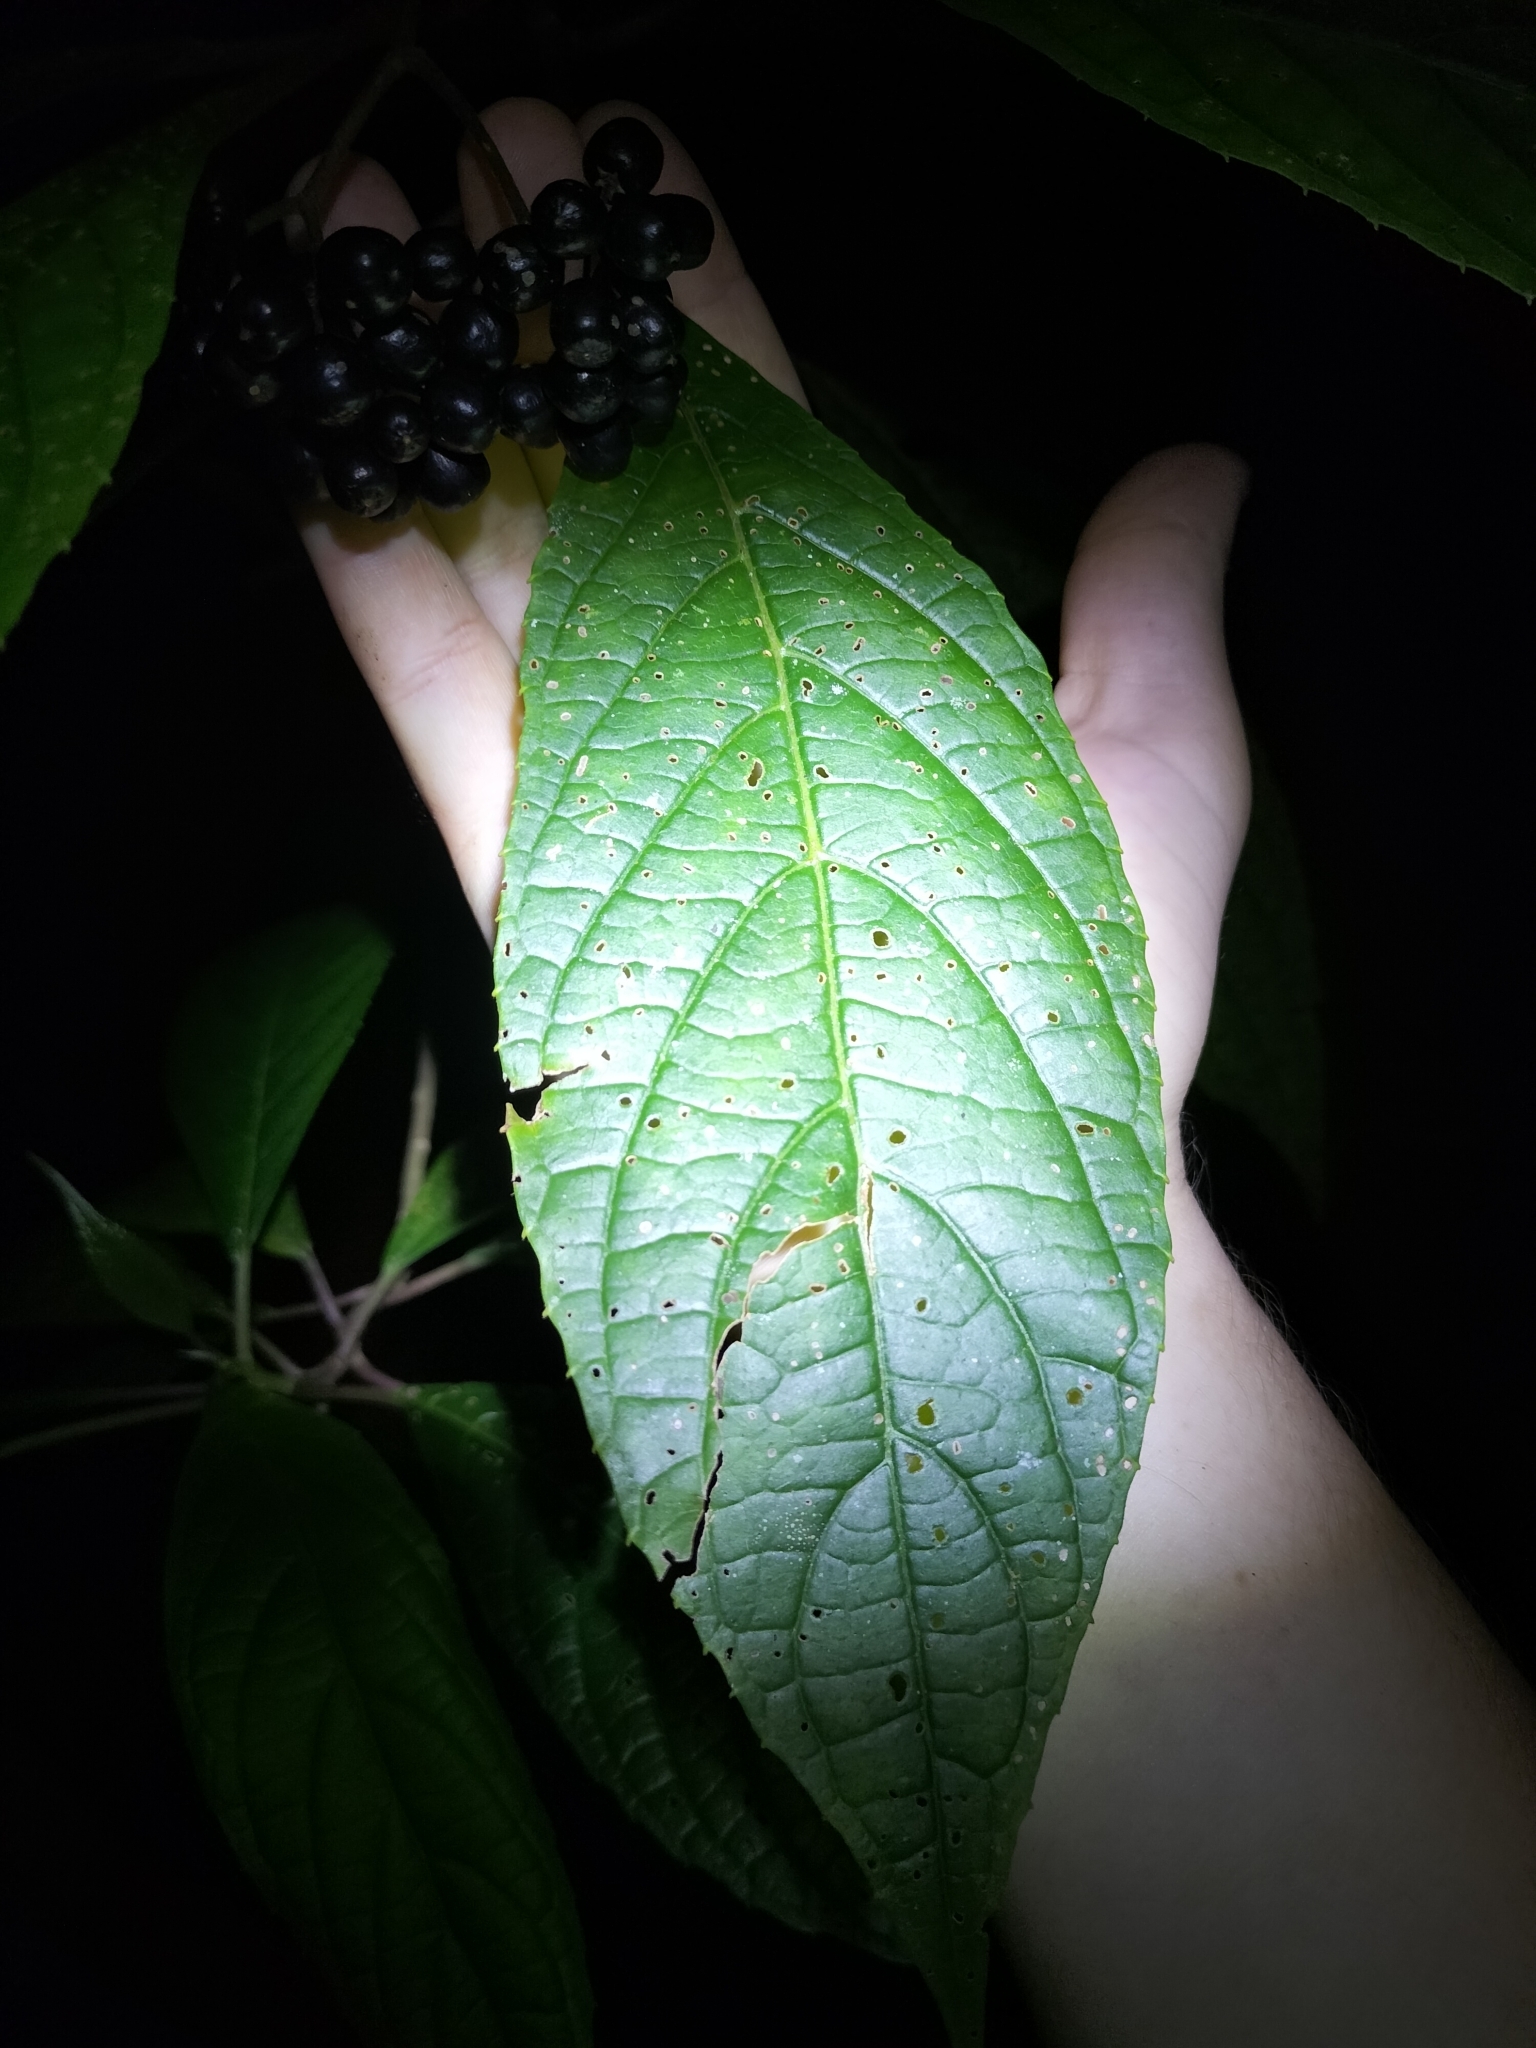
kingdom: Plantae
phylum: Tracheophyta
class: Magnoliopsida
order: Asterales
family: Rousseaceae
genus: Abrophyllum
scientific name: Abrophyllum ornans
